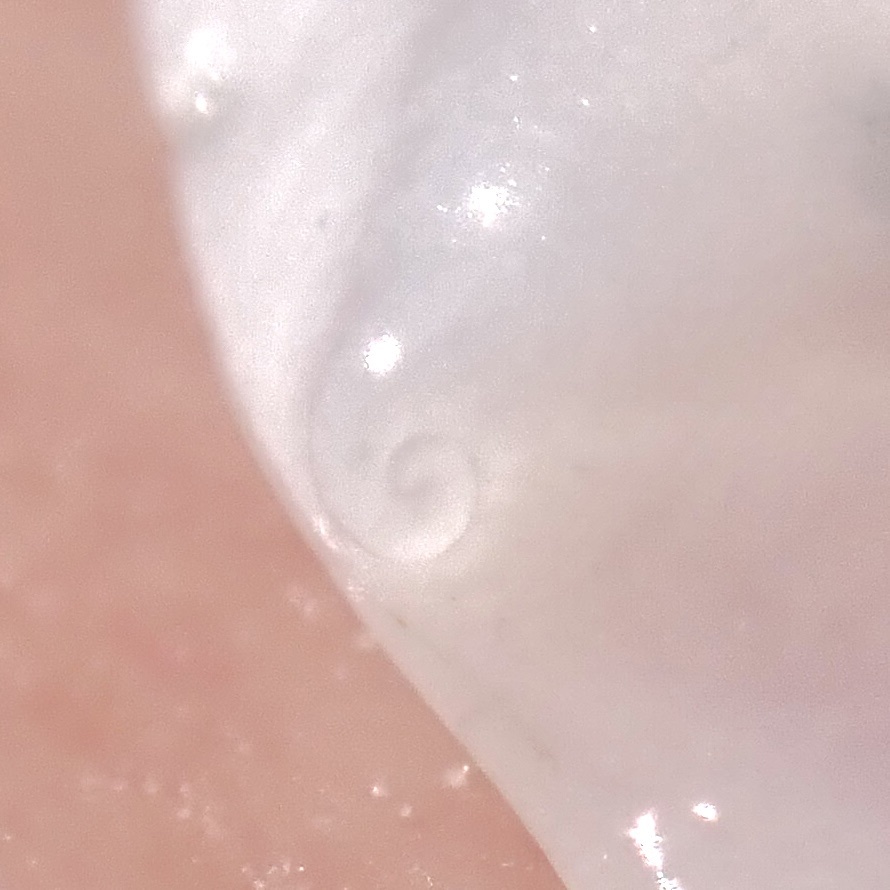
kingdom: Animalia
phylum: Mollusca
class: Gastropoda
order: Littorinimorpha
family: Calyptraeidae
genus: Crepidula
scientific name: Crepidula depressa
